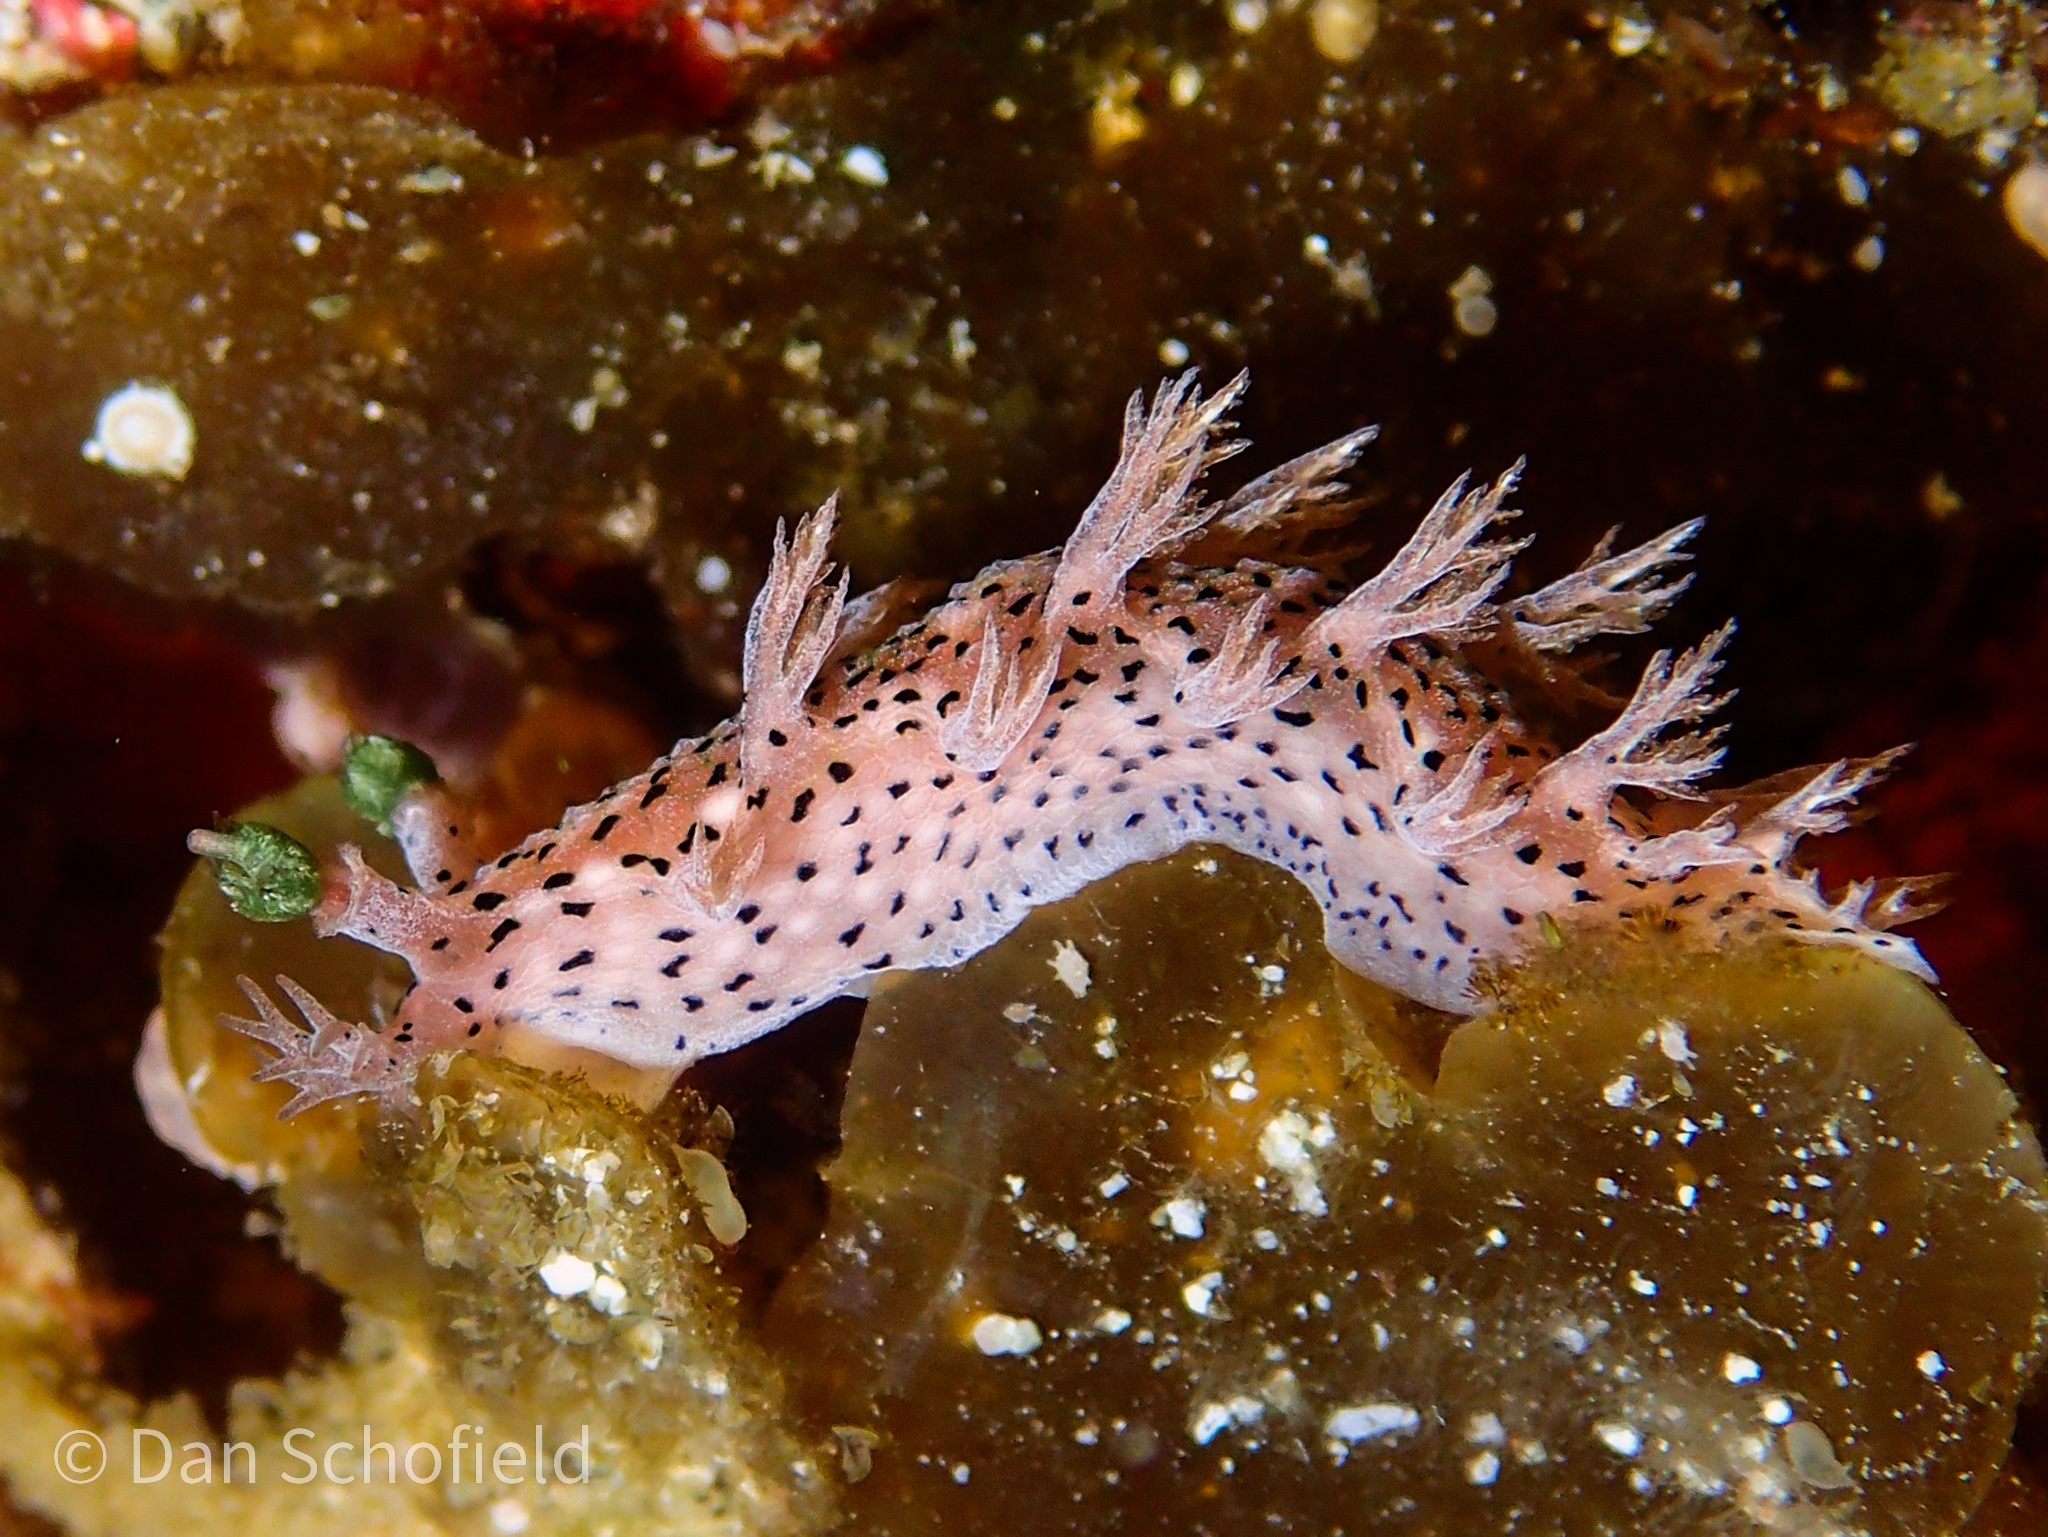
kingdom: Animalia
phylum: Mollusca
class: Gastropoda
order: Nudibranchia
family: Tritoniidae
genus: Tritonia
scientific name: Tritonia
